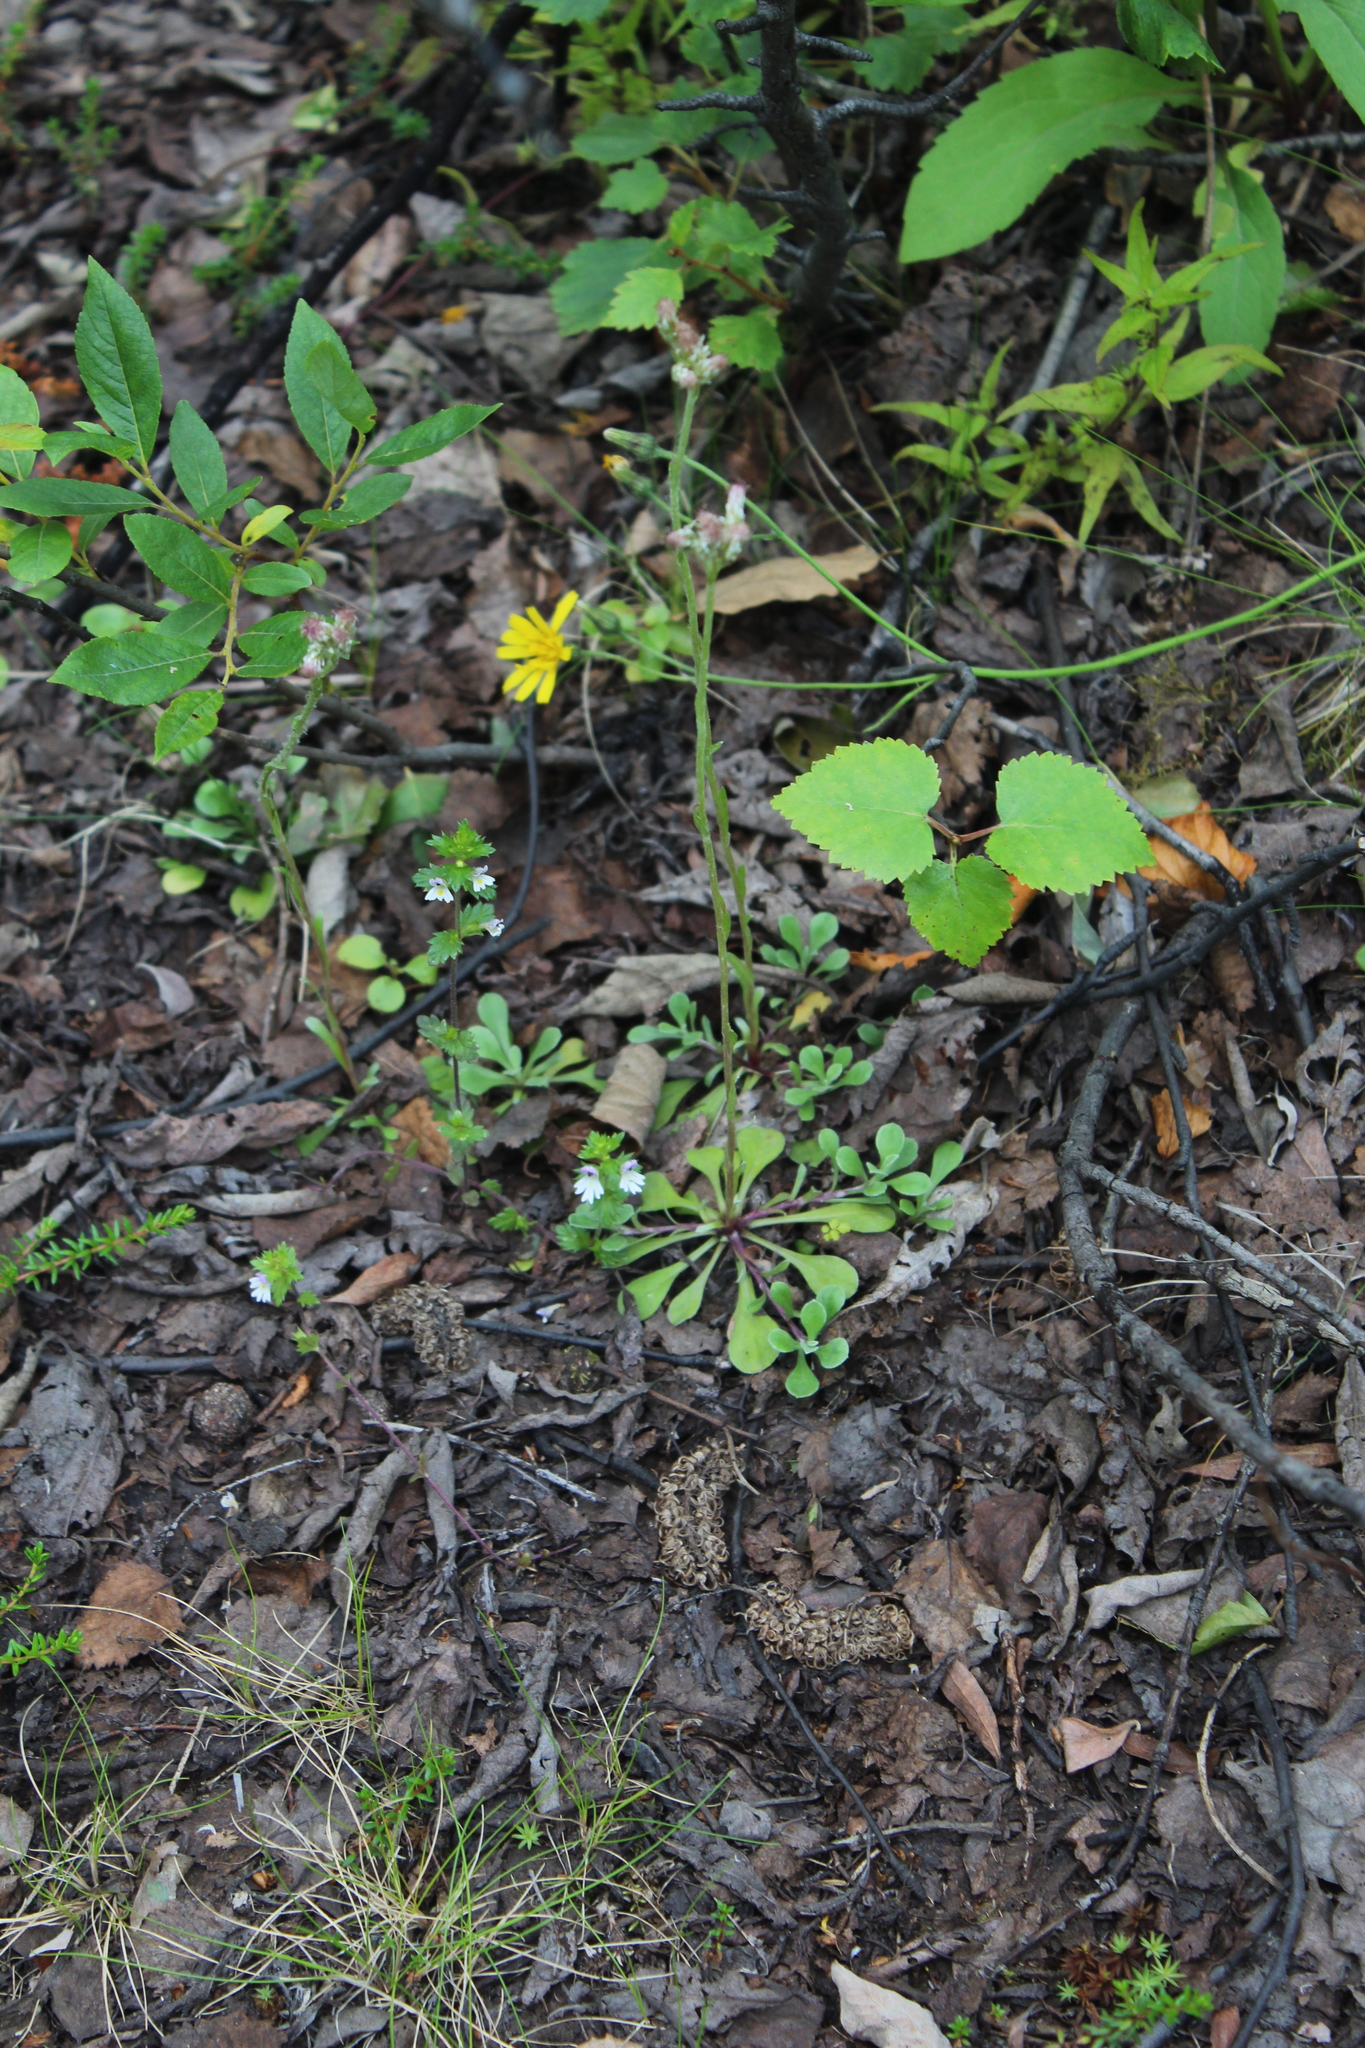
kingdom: Plantae
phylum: Tracheophyta
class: Magnoliopsida
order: Asterales
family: Asteraceae
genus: Antennaria
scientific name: Antennaria dioica
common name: Mountain everlasting
